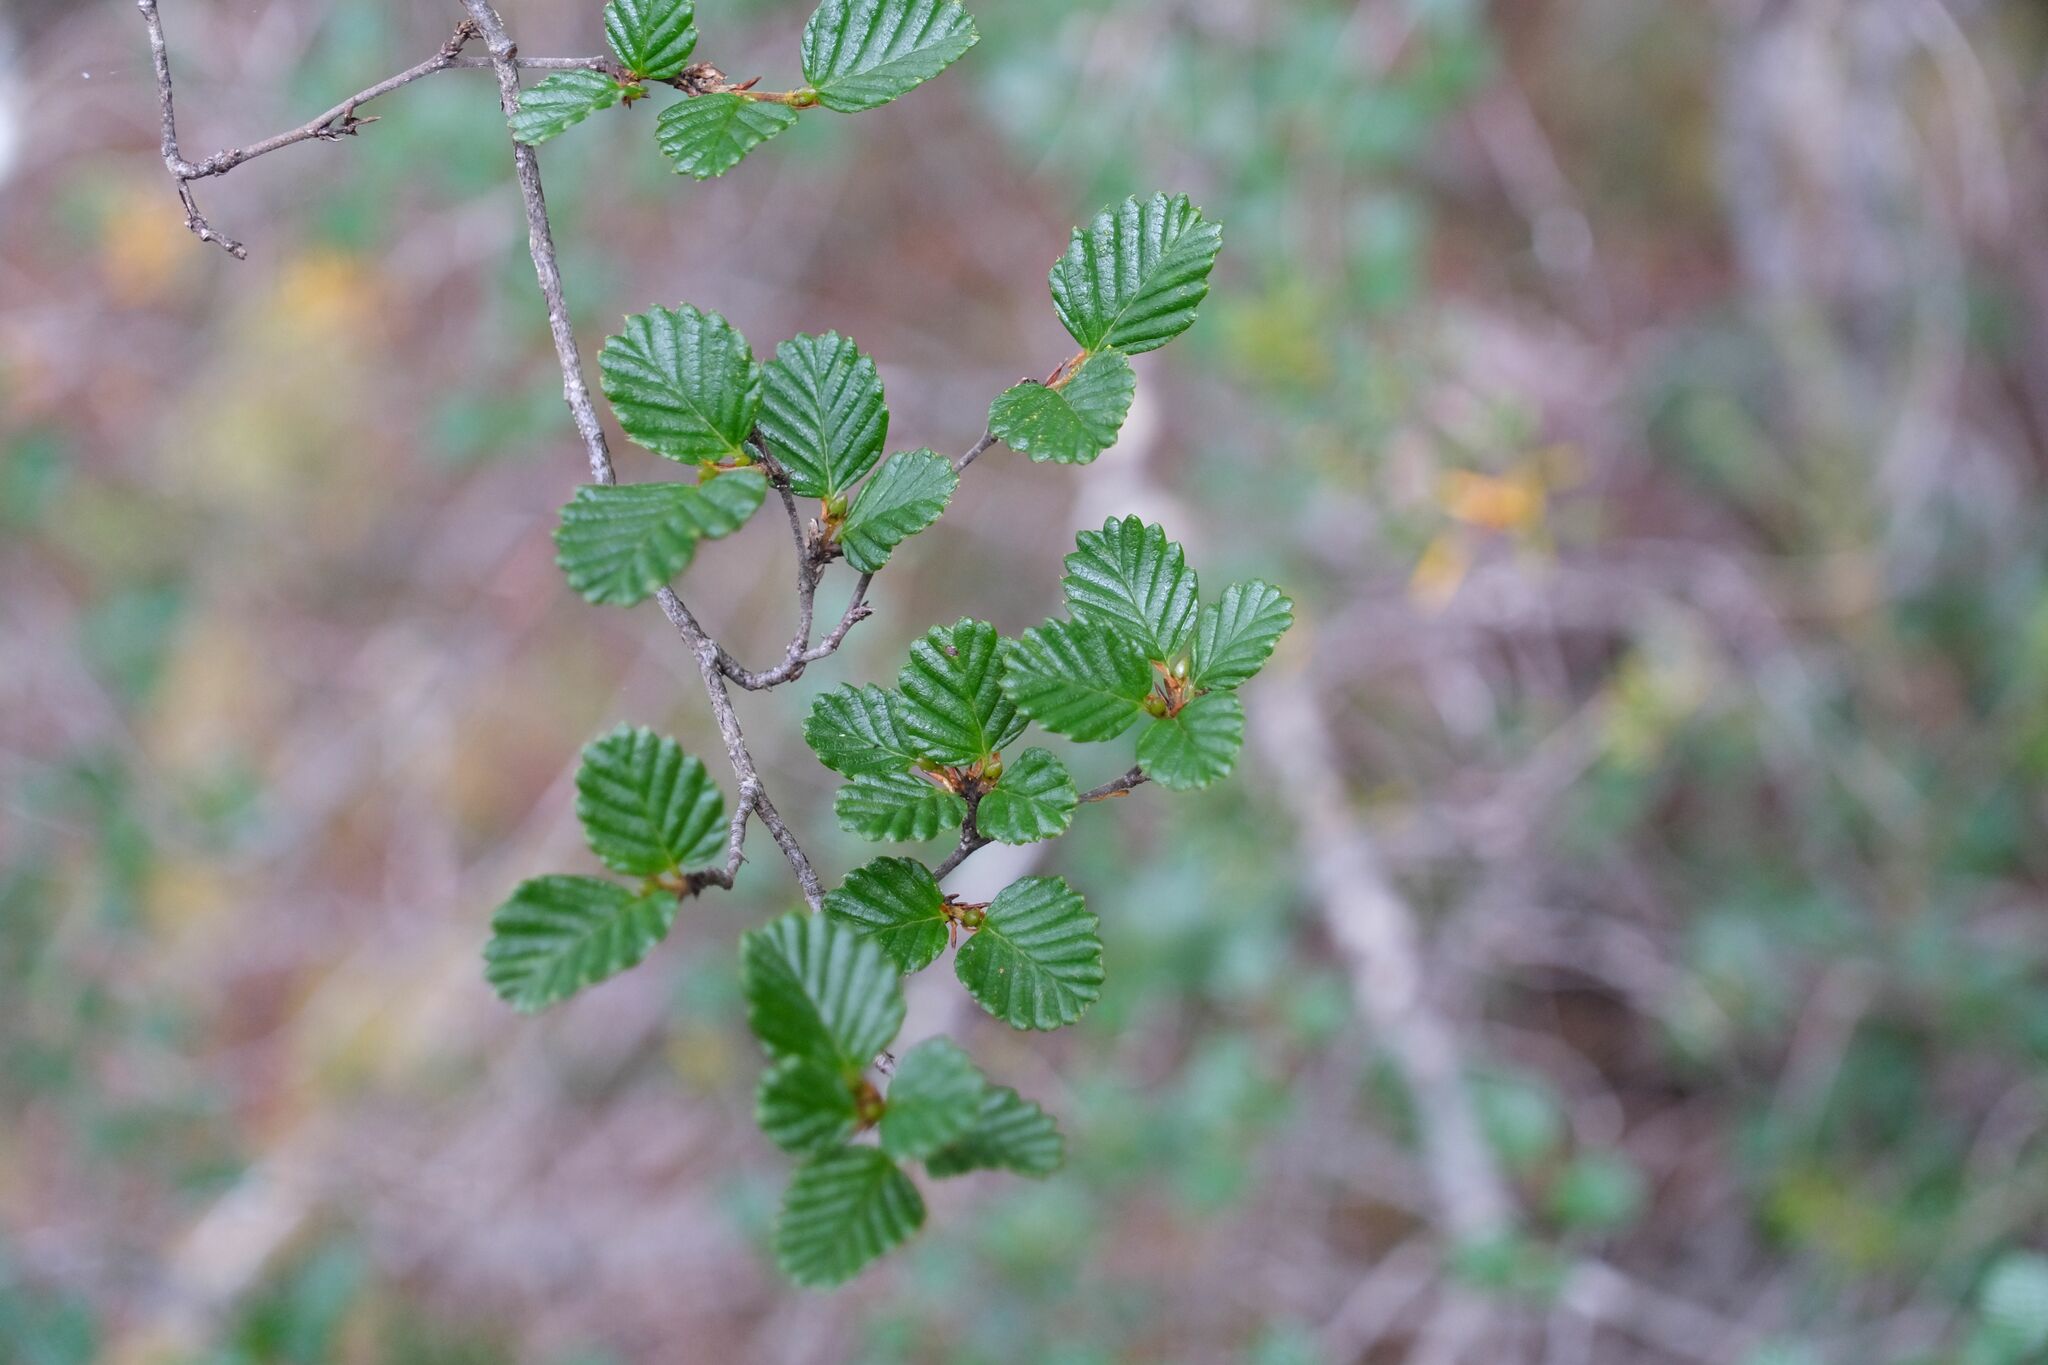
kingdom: Plantae
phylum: Tracheophyta
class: Magnoliopsida
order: Fagales
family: Nothofagaceae
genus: Nothofagus
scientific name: Nothofagus gunnii
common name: Tanglefoot
